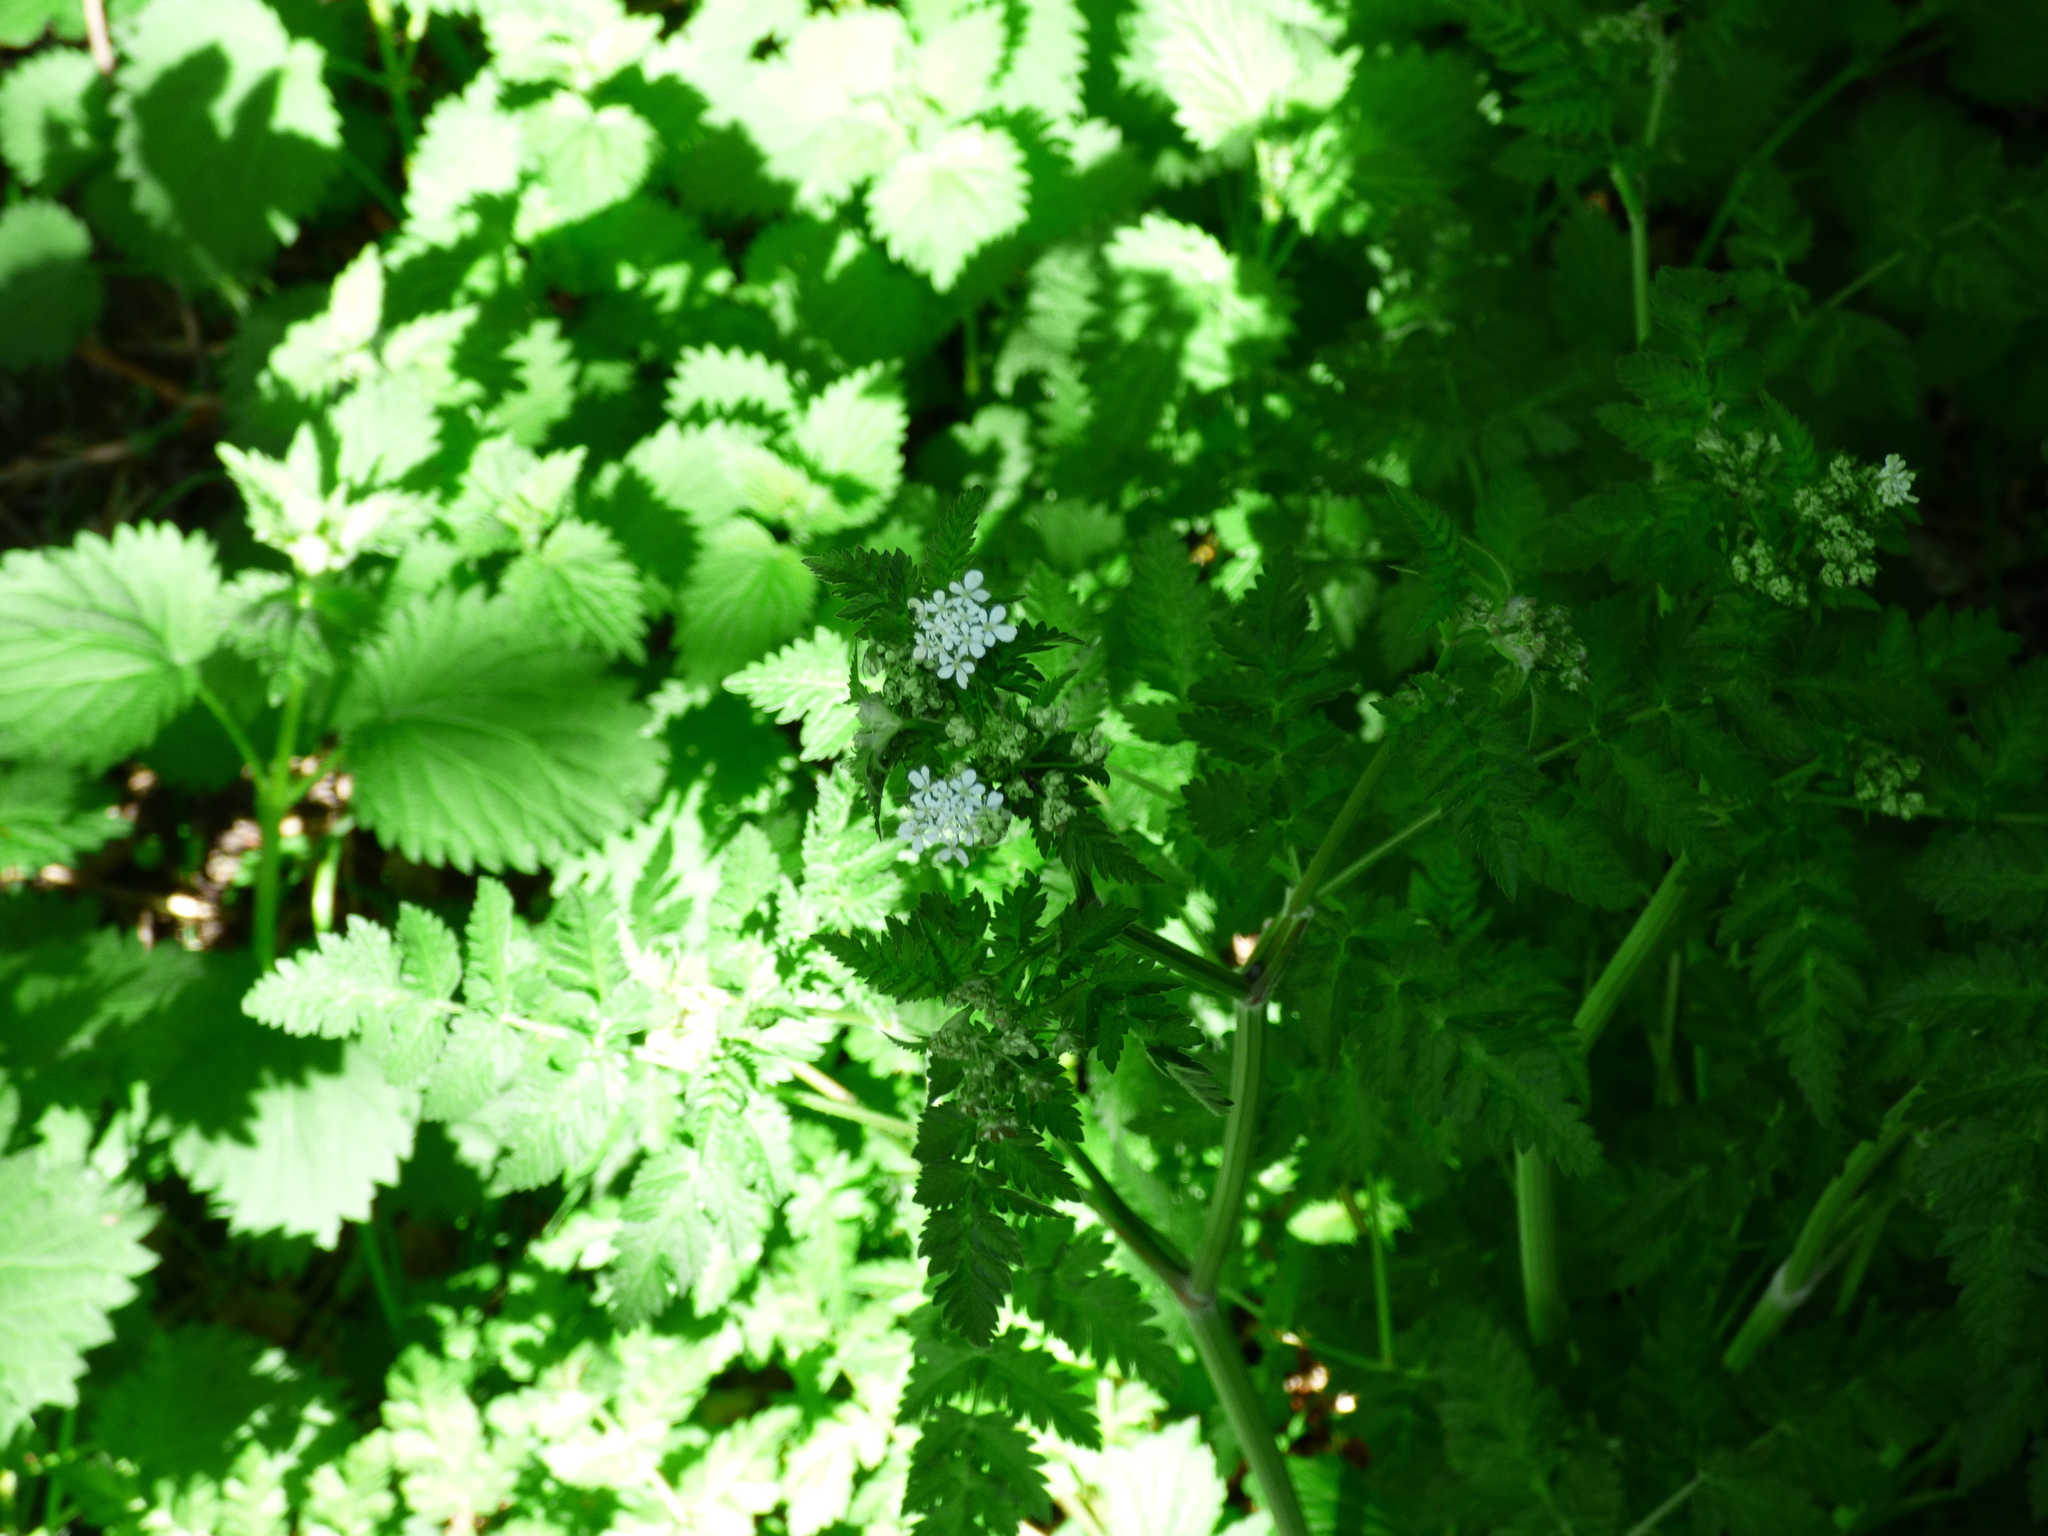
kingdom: Plantae
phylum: Tracheophyta
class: Magnoliopsida
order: Apiales
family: Apiaceae
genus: Anthriscus
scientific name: Anthriscus sylvestris
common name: Cow parsley
